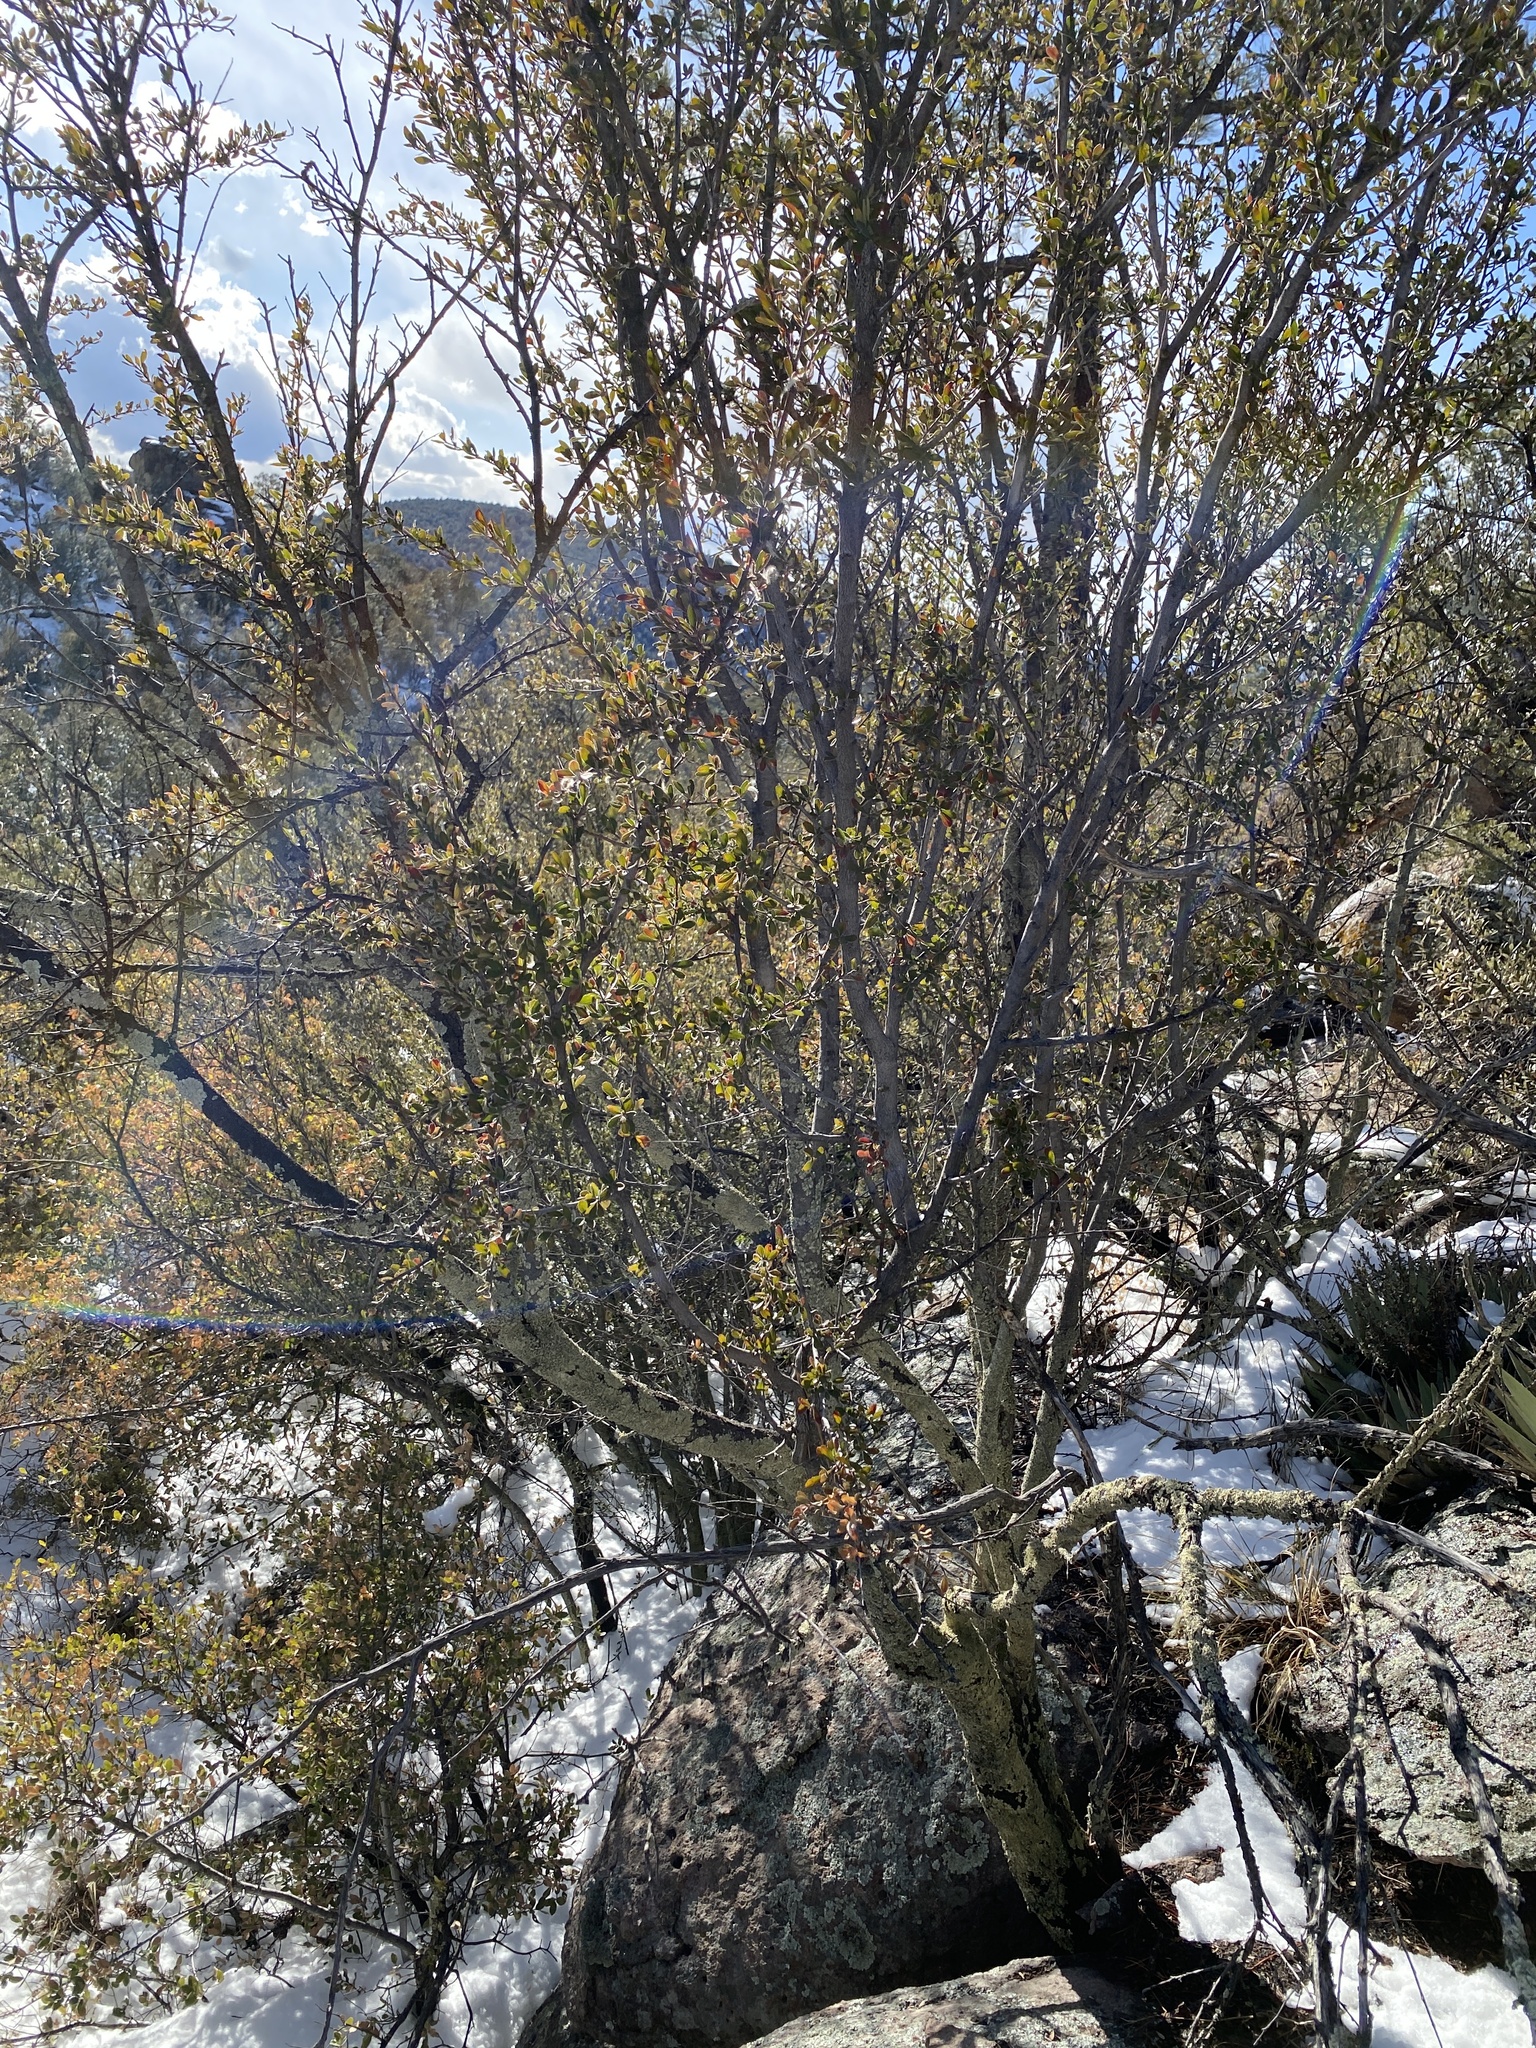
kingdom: Plantae
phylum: Tracheophyta
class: Magnoliopsida
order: Rosales
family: Rosaceae
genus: Cercocarpus
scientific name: Cercocarpus breviflorus
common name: Wright's mountain-mahogany
